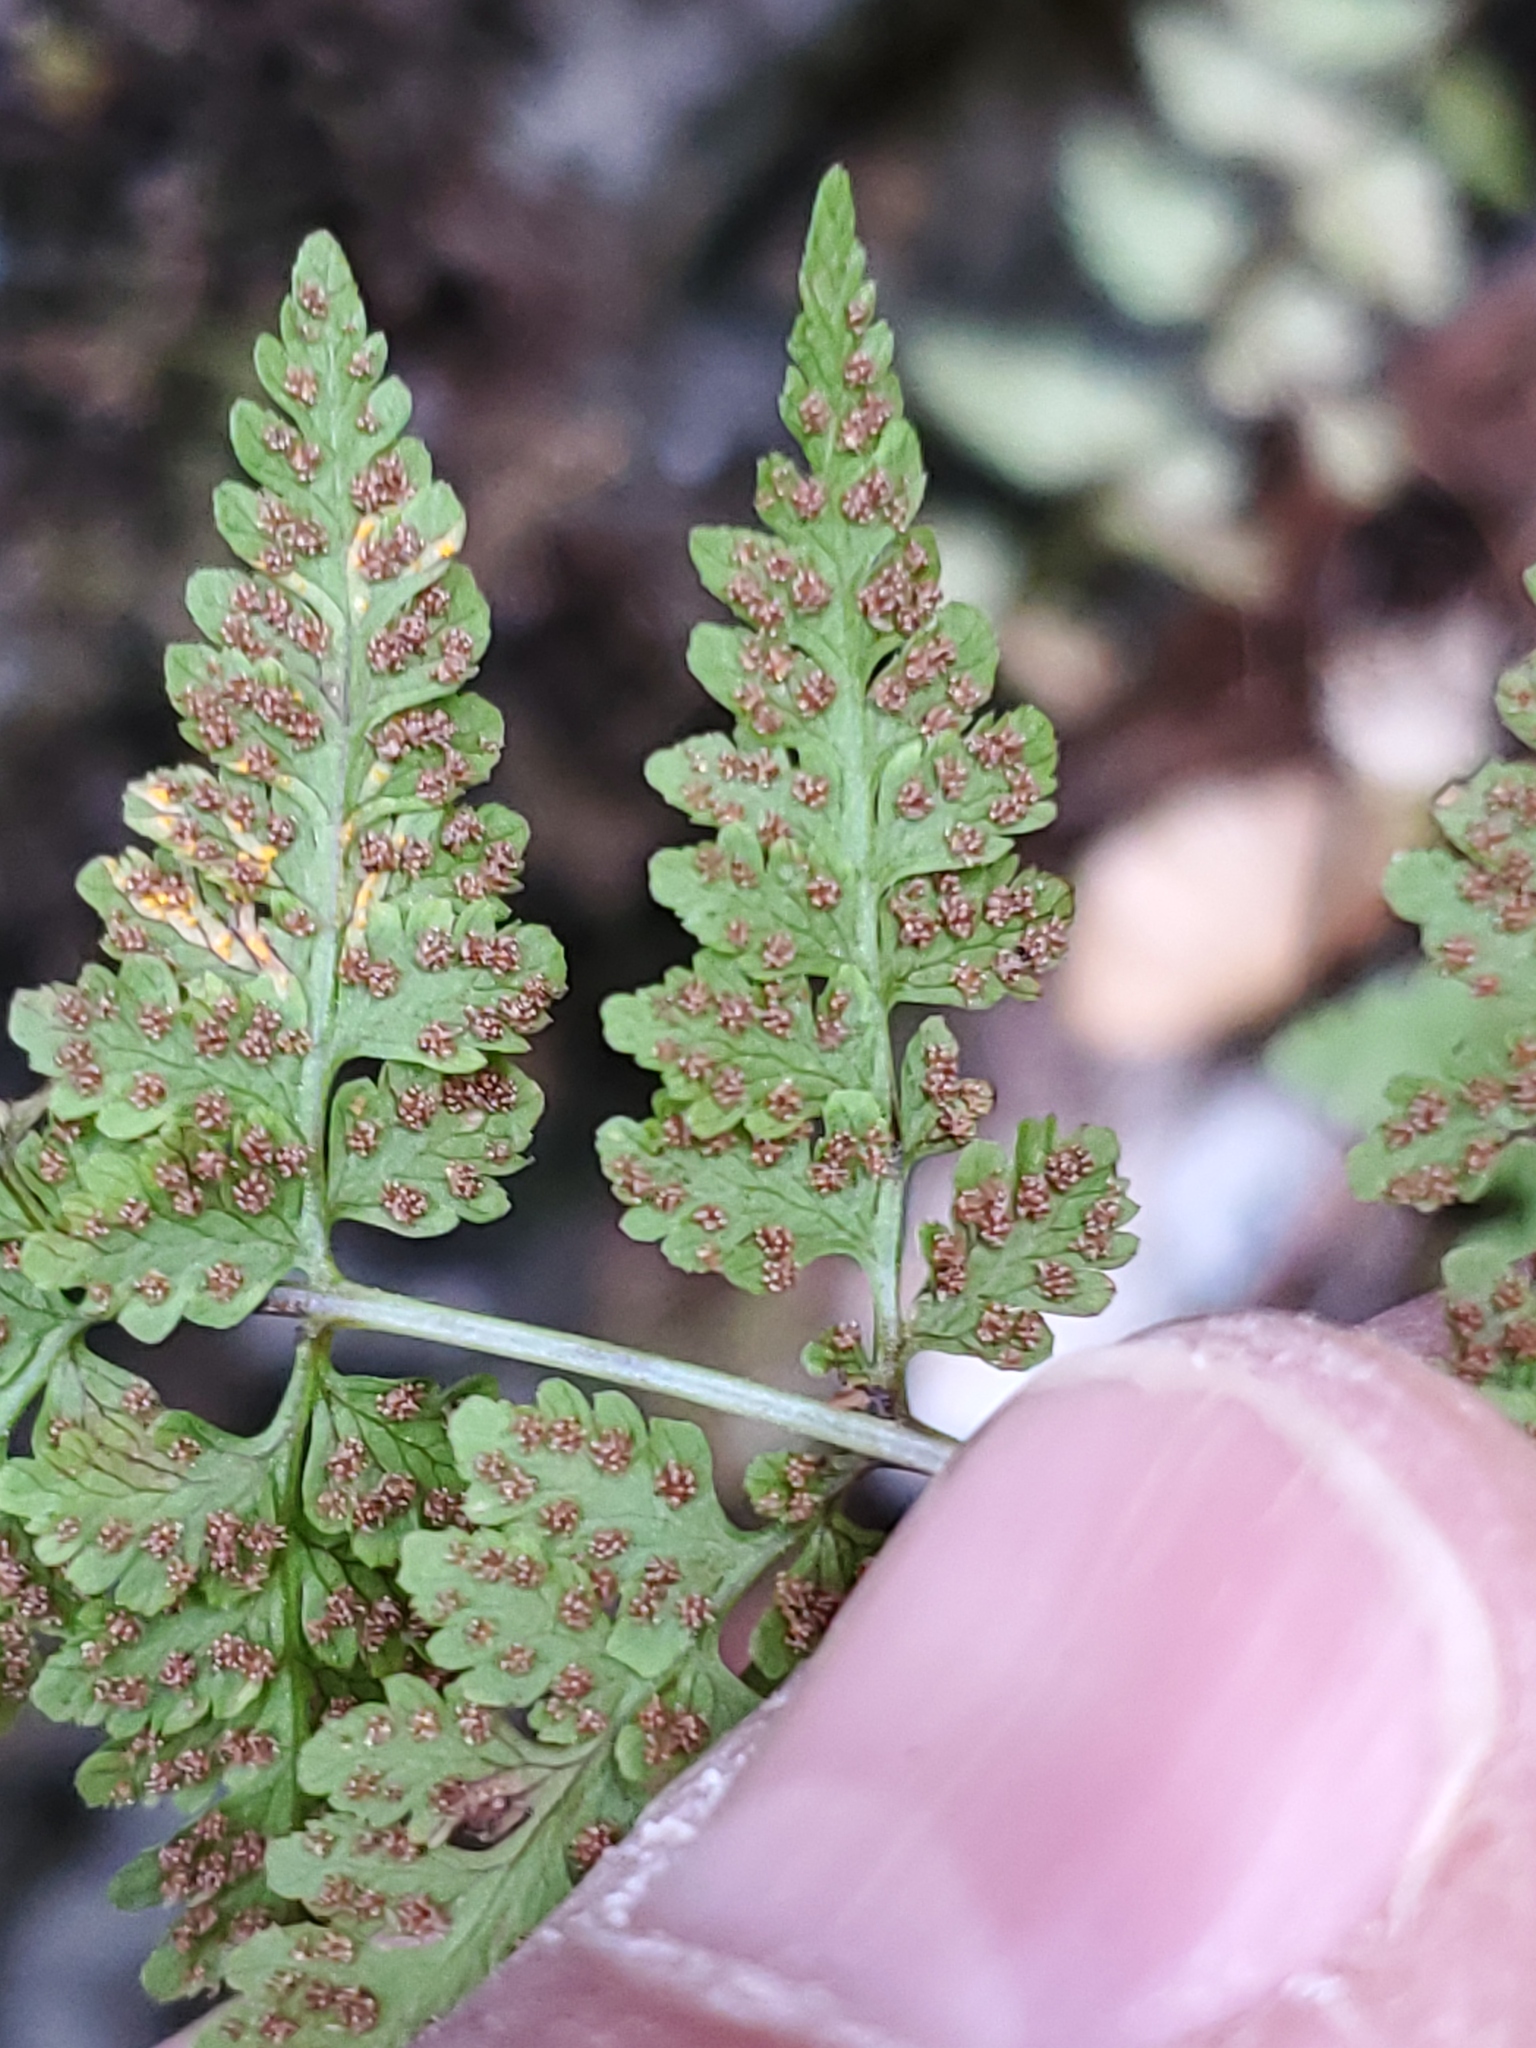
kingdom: Plantae
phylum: Tracheophyta
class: Polypodiopsida
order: Polypodiales
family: Cystopteridaceae
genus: Cystopteris
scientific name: Cystopteris fragilis
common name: Brittle bladder fern
